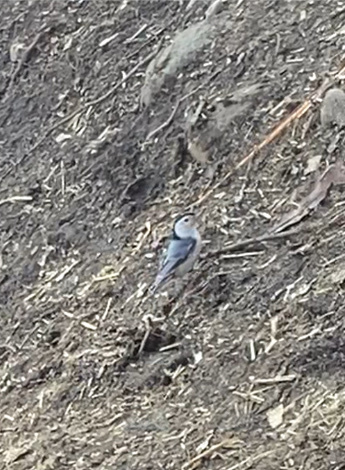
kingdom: Animalia
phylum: Chordata
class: Aves
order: Passeriformes
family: Sittidae
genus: Sitta
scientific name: Sitta carolinensis
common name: White-breasted nuthatch
